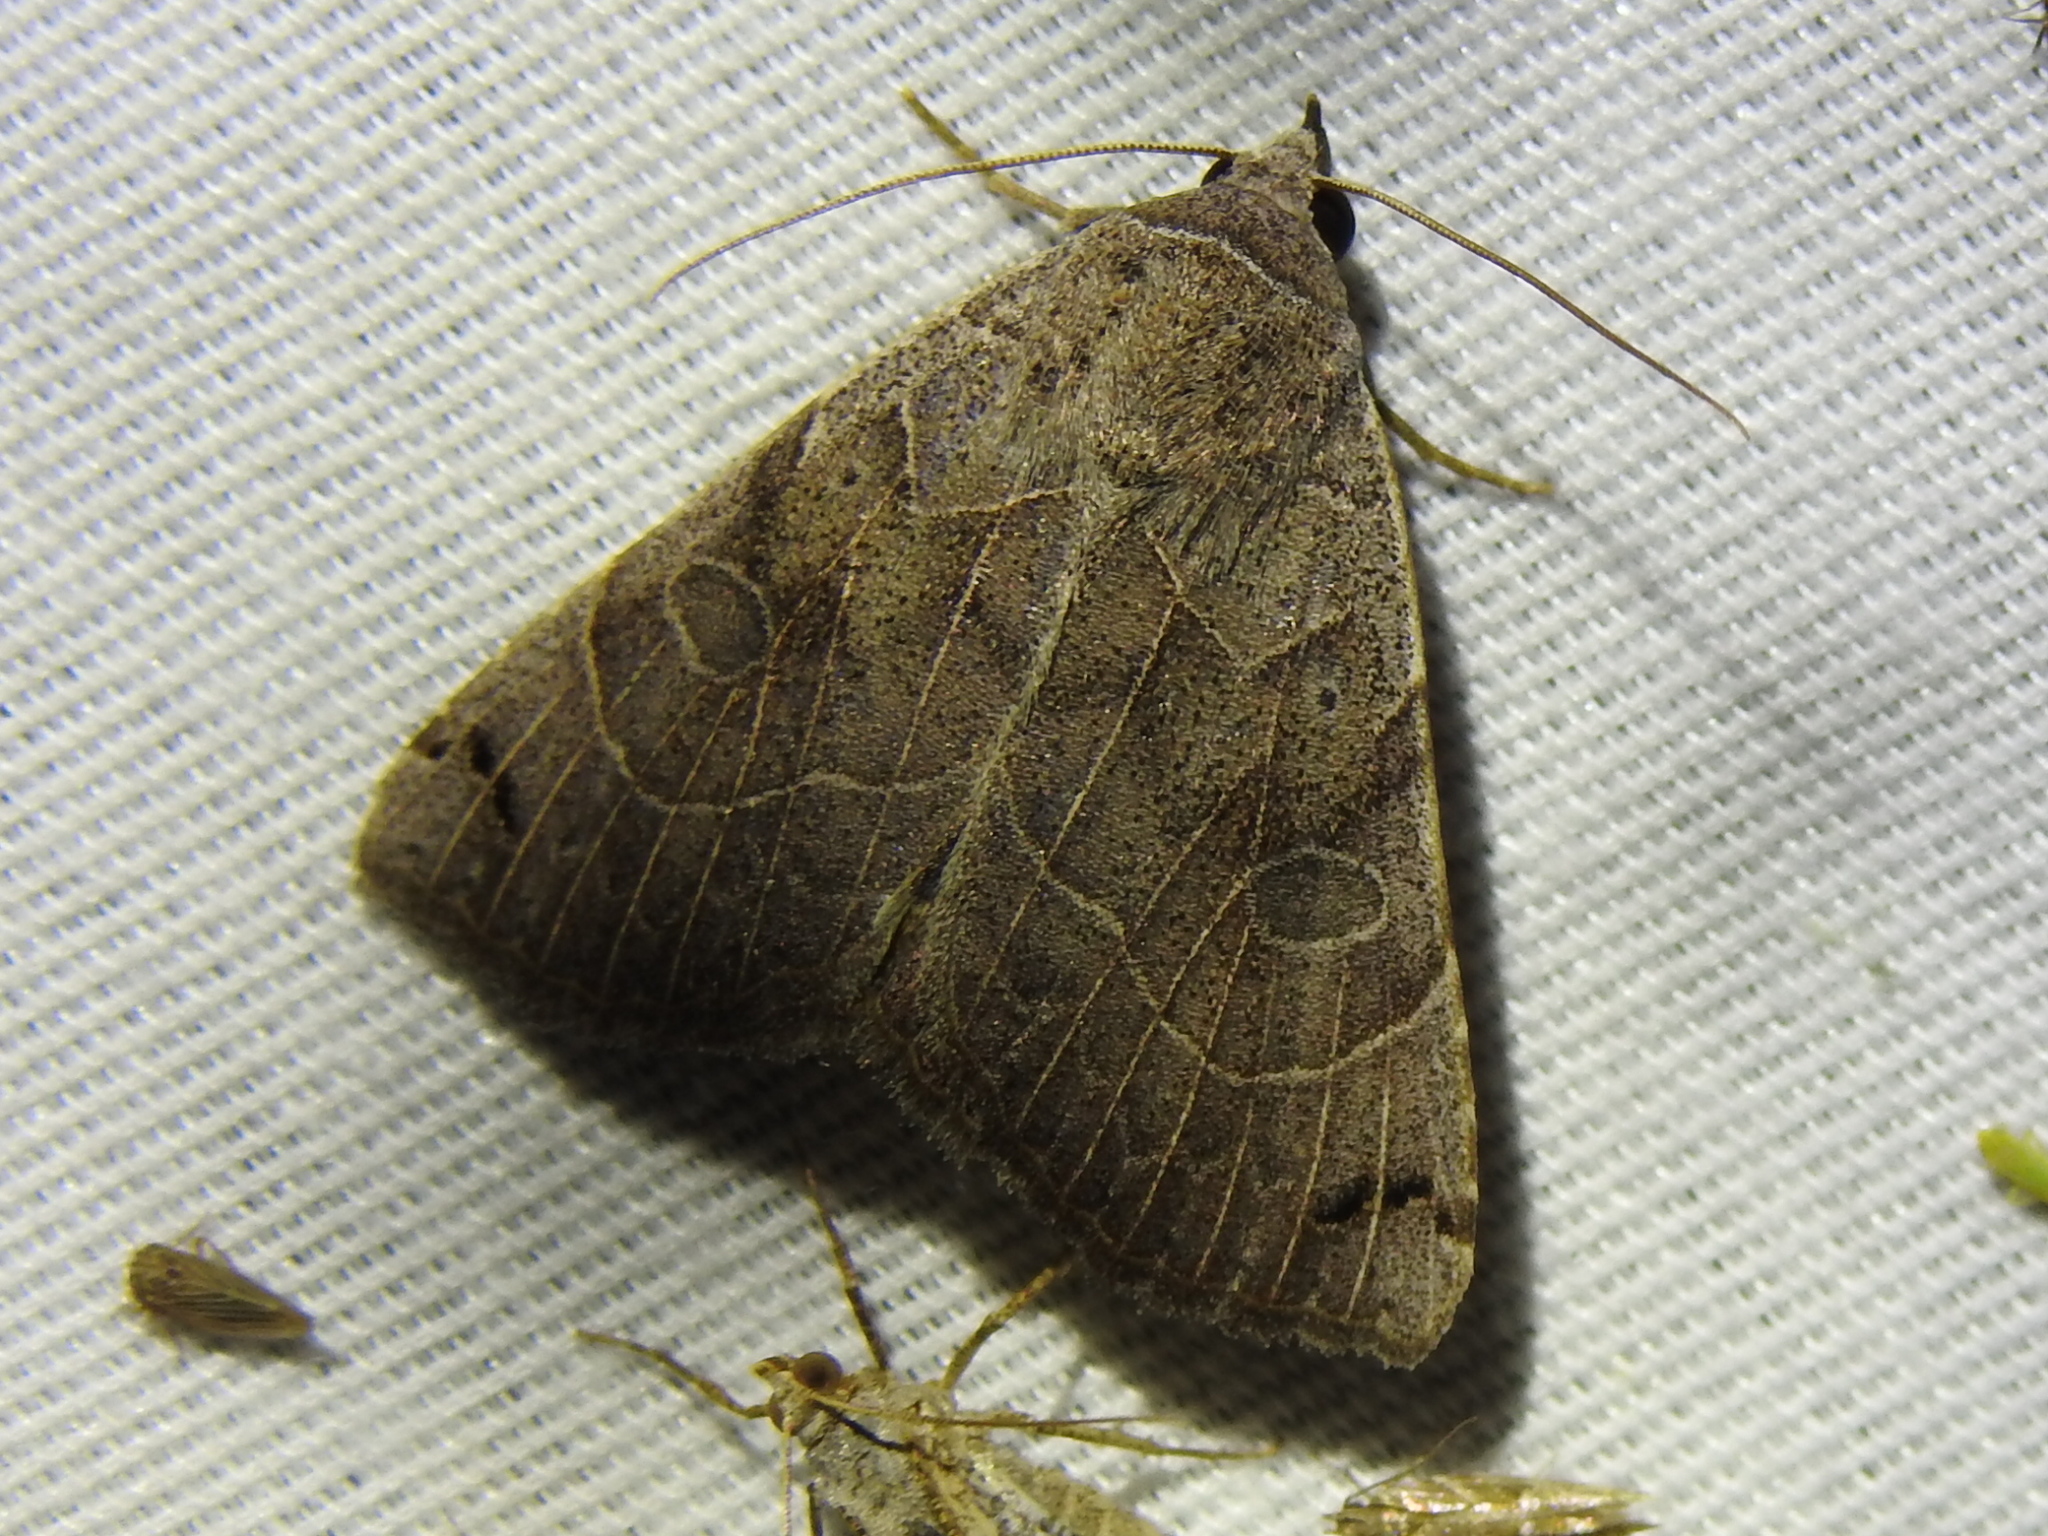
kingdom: Animalia
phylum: Arthropoda
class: Insecta
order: Lepidoptera
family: Erebidae
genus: Isogona
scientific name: Isogona scindens
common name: Owlet moth
